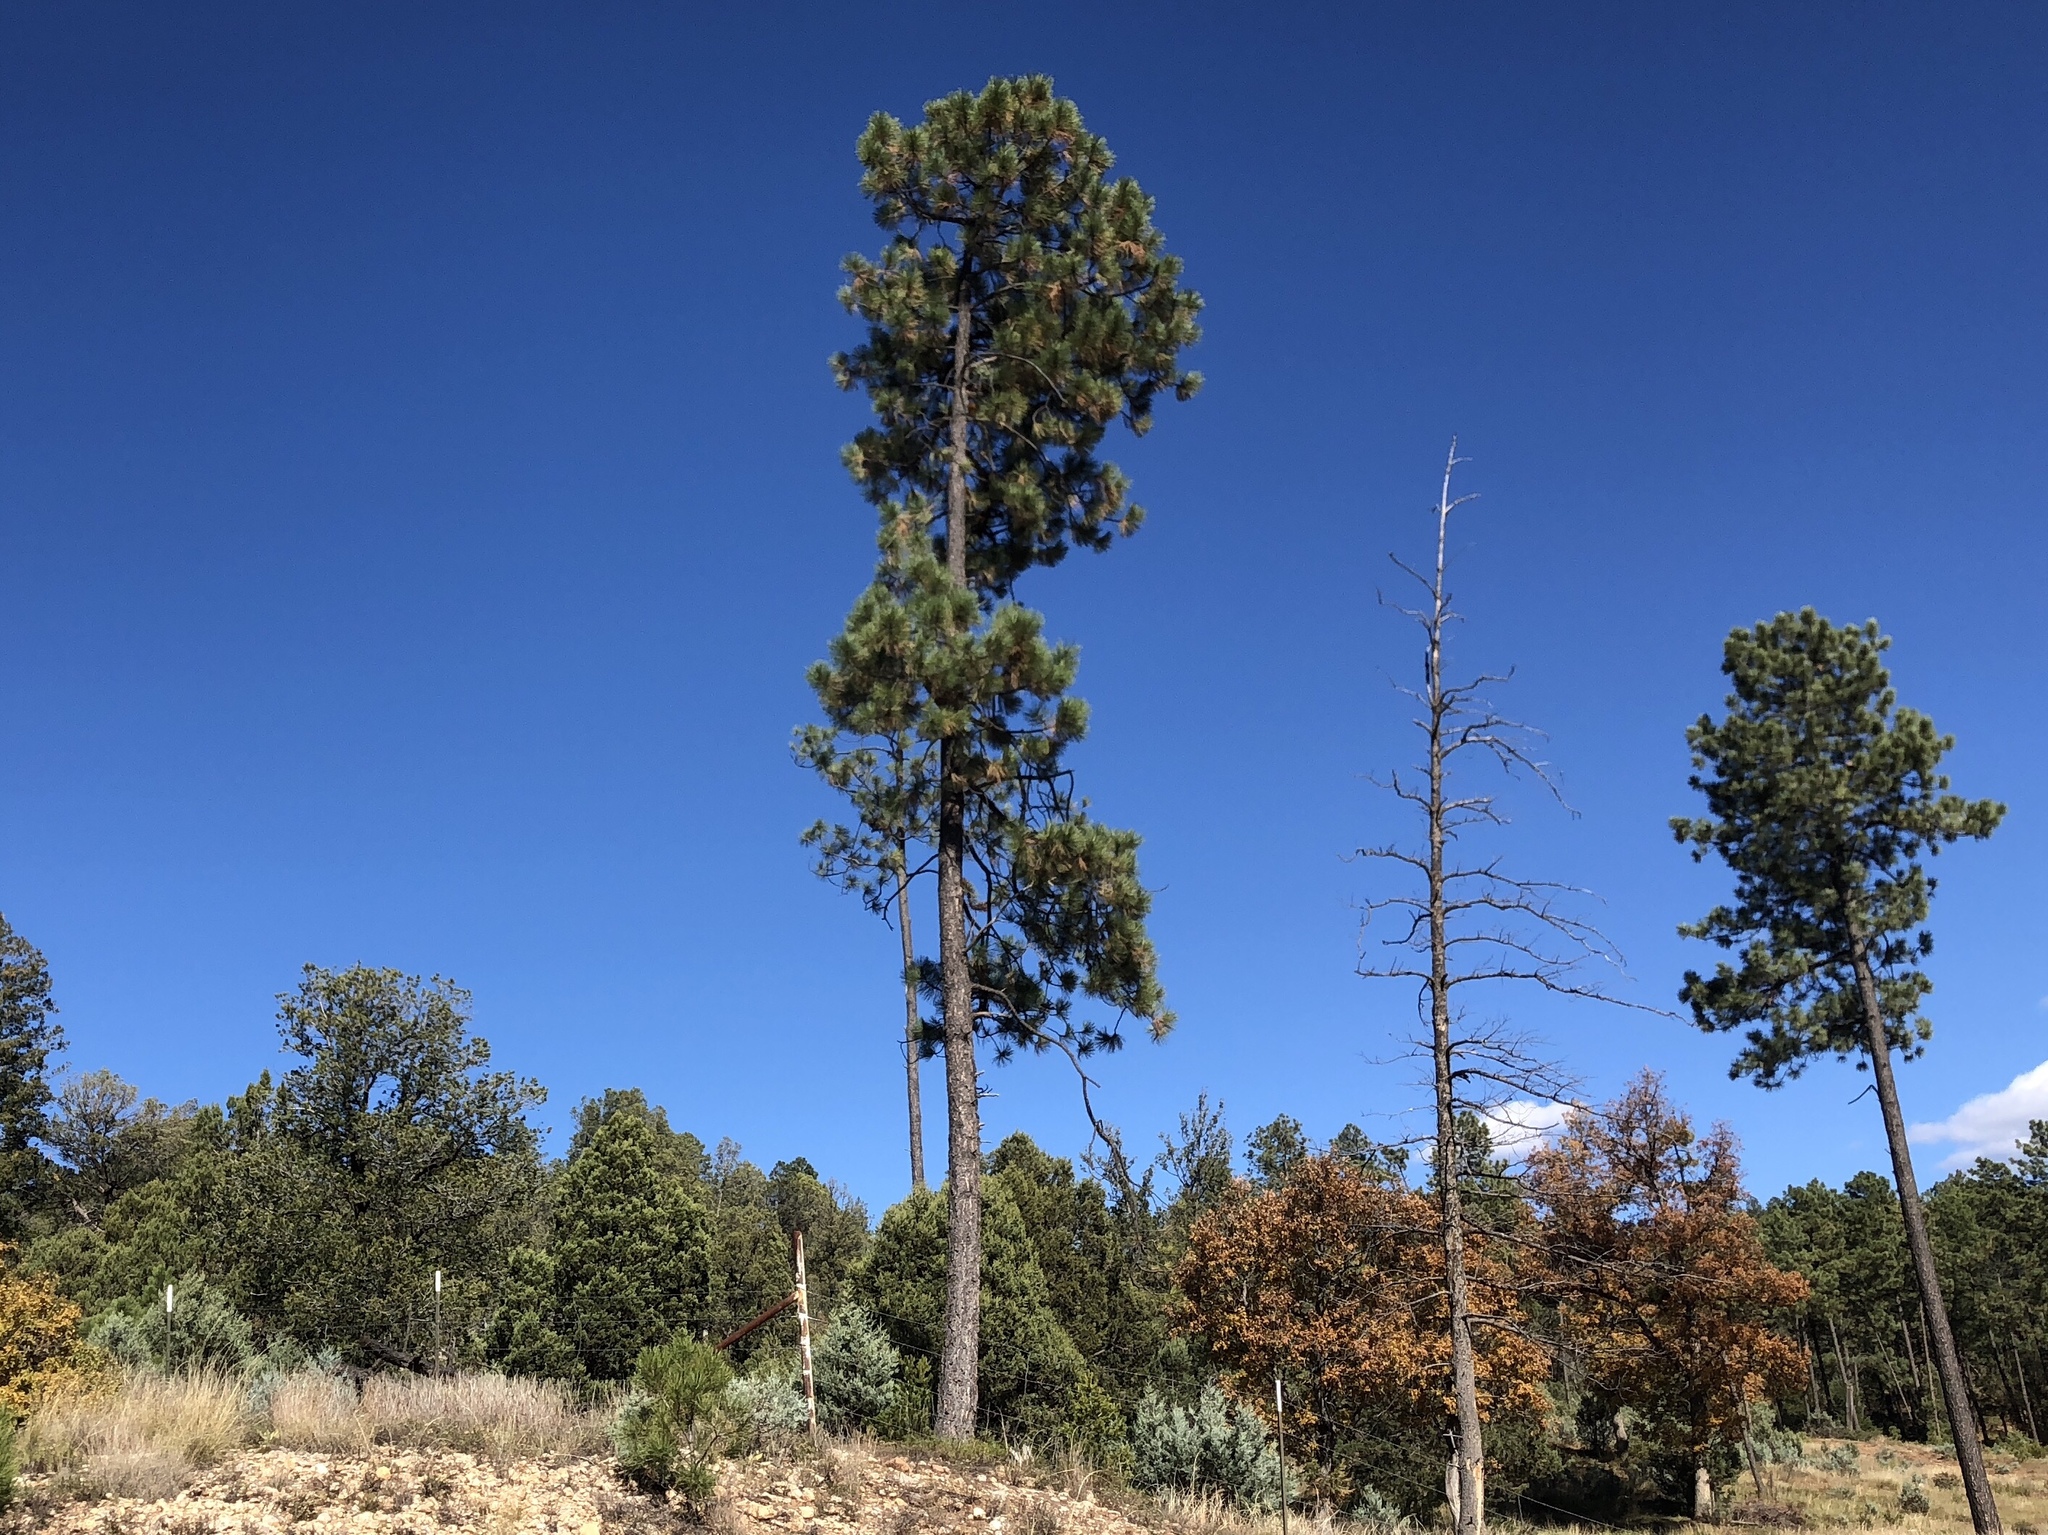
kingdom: Plantae
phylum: Tracheophyta
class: Pinopsida
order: Pinales
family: Pinaceae
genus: Pinus
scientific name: Pinus ponderosa
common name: Western yellow-pine
